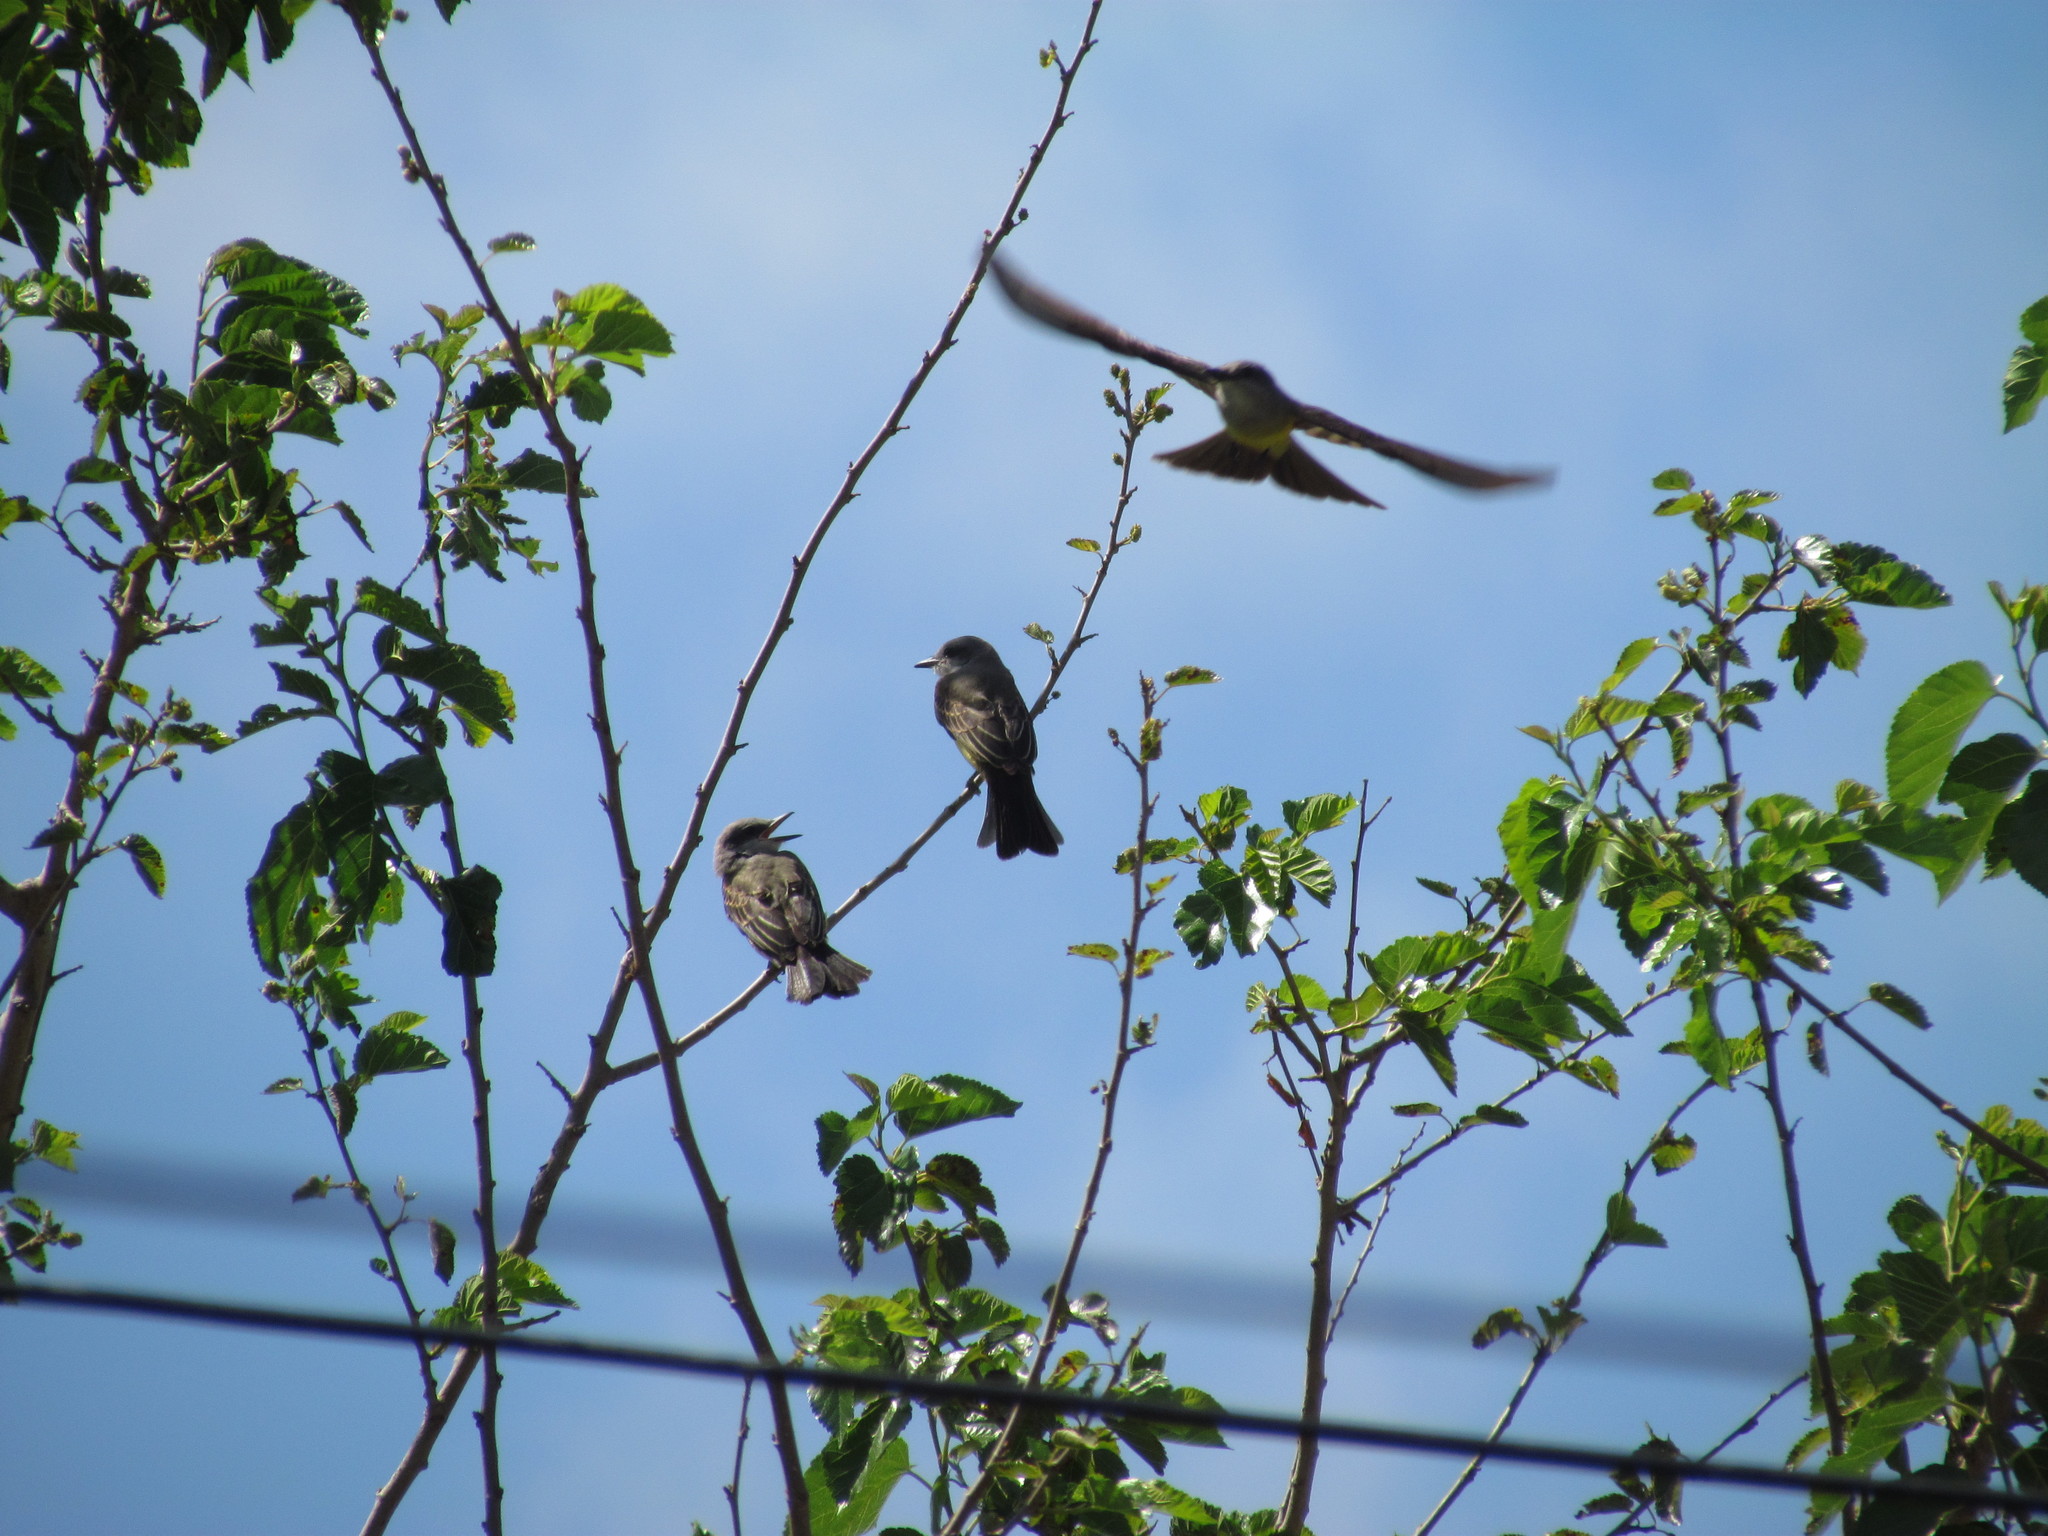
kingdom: Animalia
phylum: Chordata
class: Aves
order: Passeriformes
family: Tyrannidae
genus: Tyrannus
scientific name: Tyrannus melancholicus
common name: Tropical kingbird
